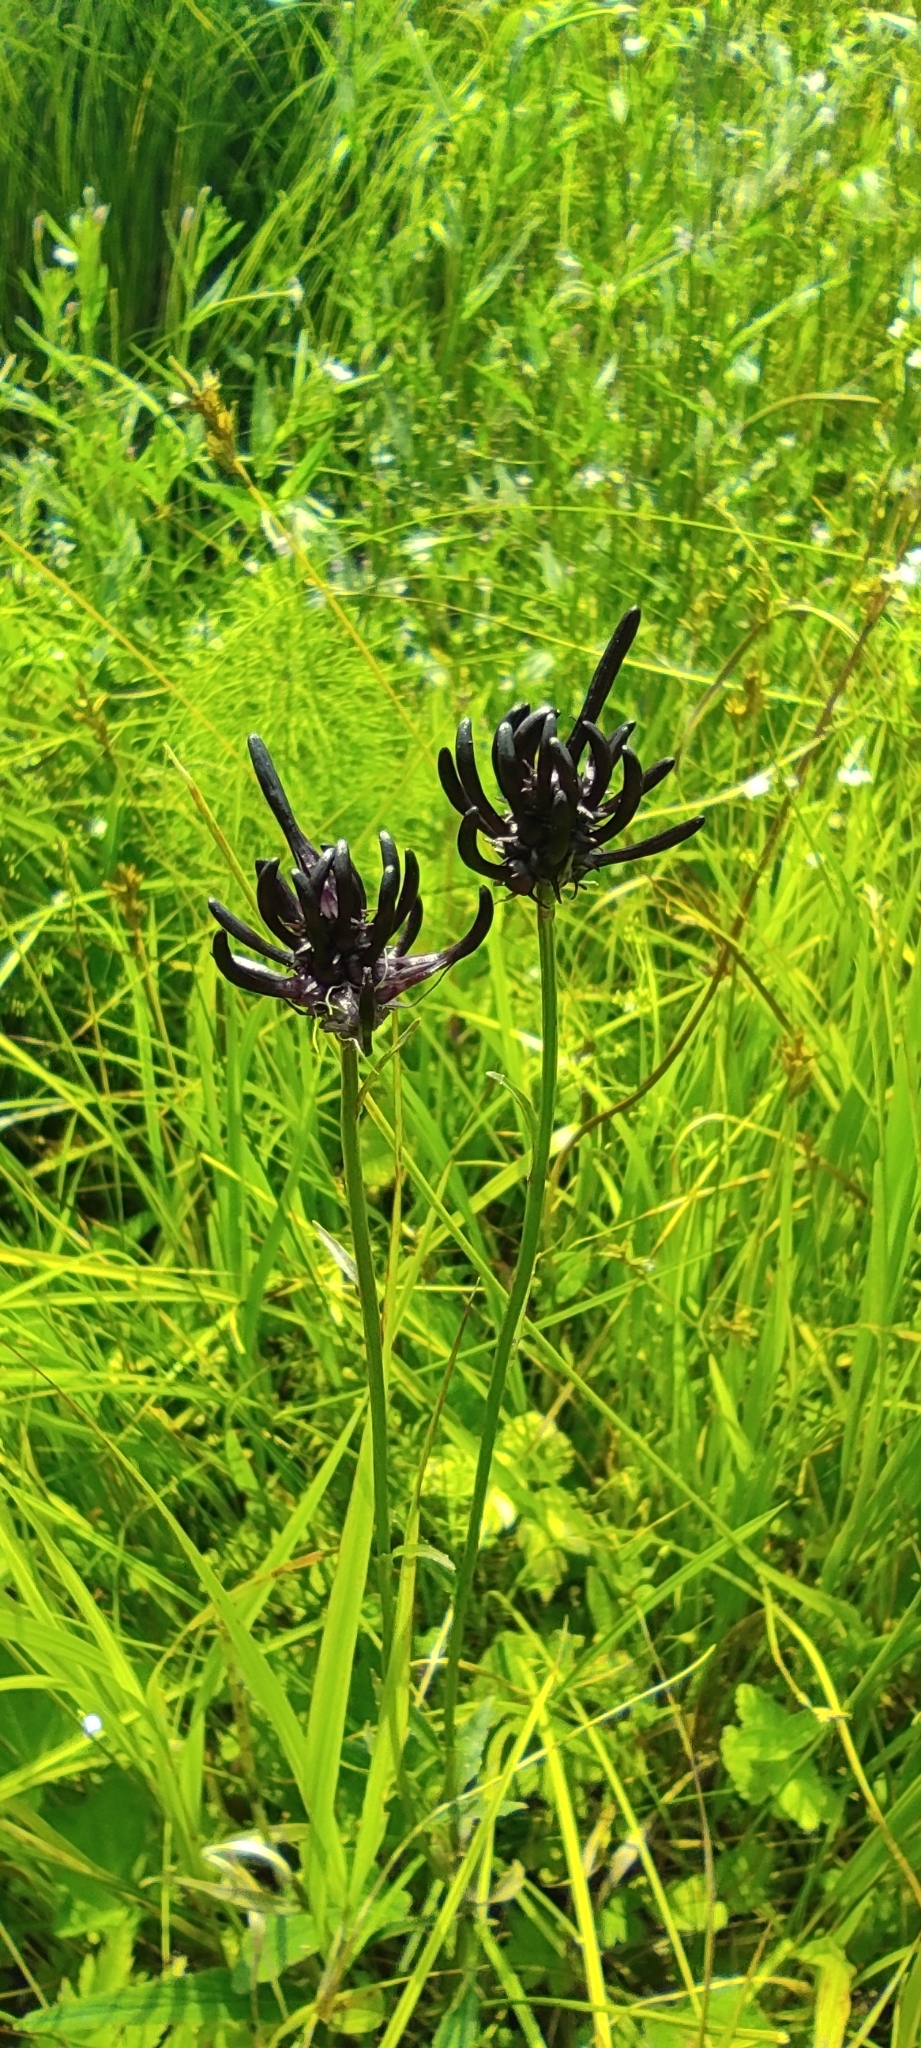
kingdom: Plantae
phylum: Tracheophyta
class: Magnoliopsida
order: Asterales
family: Campanulaceae
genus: Phyteuma
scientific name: Phyteuma nigrum
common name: Black rampion
